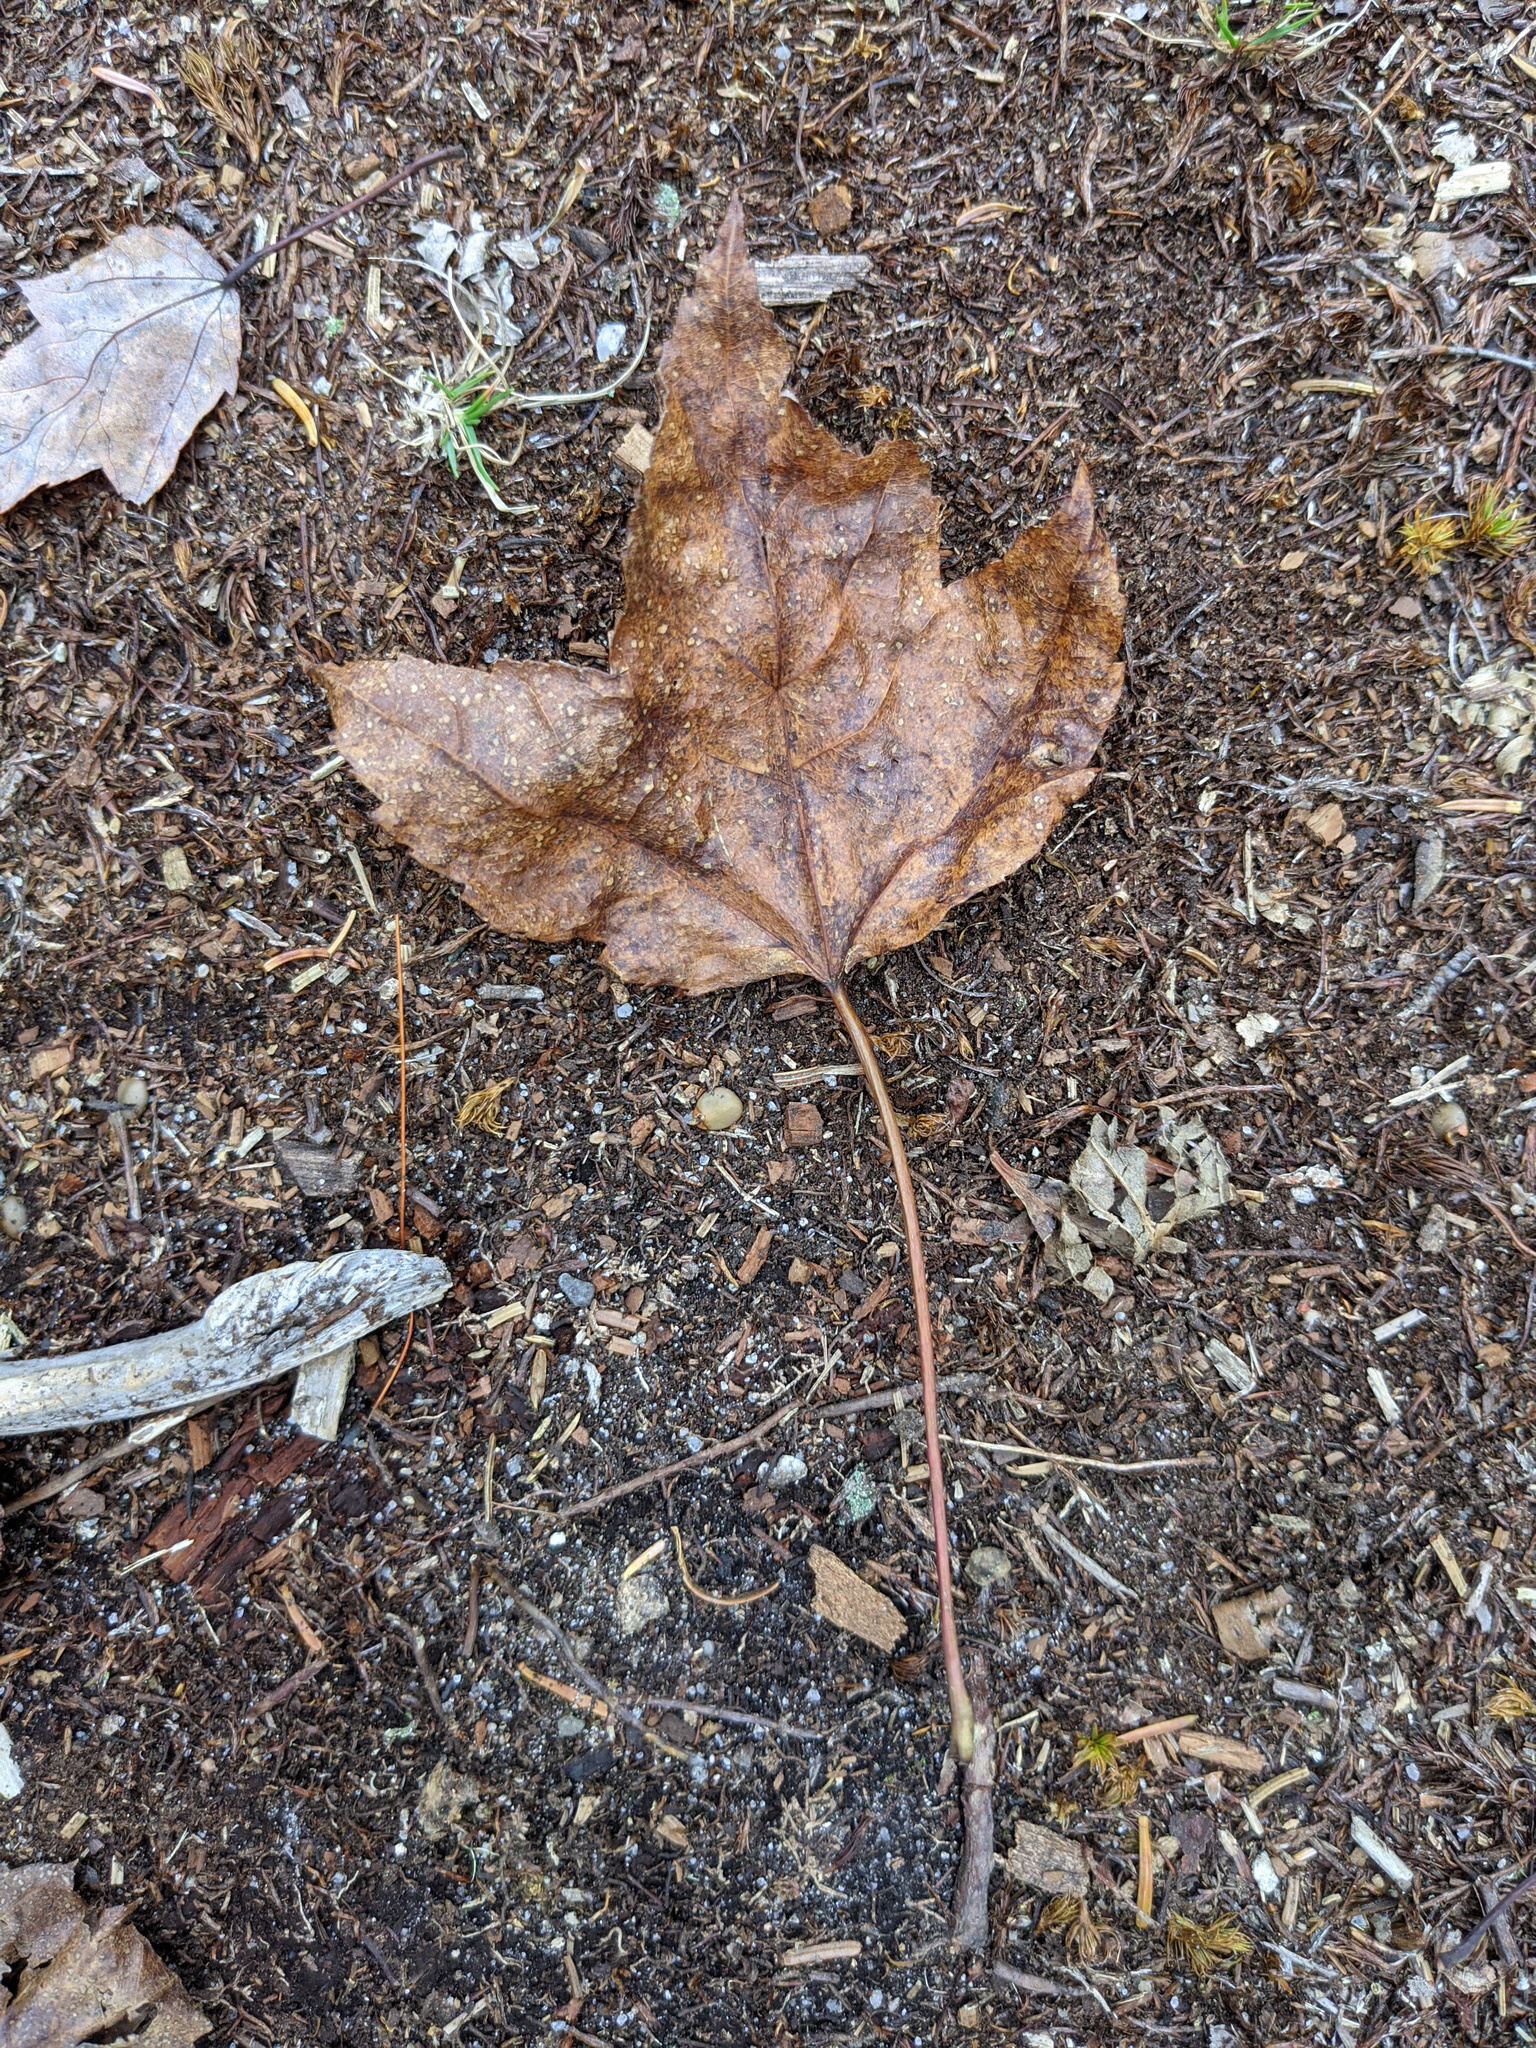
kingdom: Plantae
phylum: Tracheophyta
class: Magnoliopsida
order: Sapindales
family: Sapindaceae
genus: Acer
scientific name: Acer rubrum
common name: Red maple
